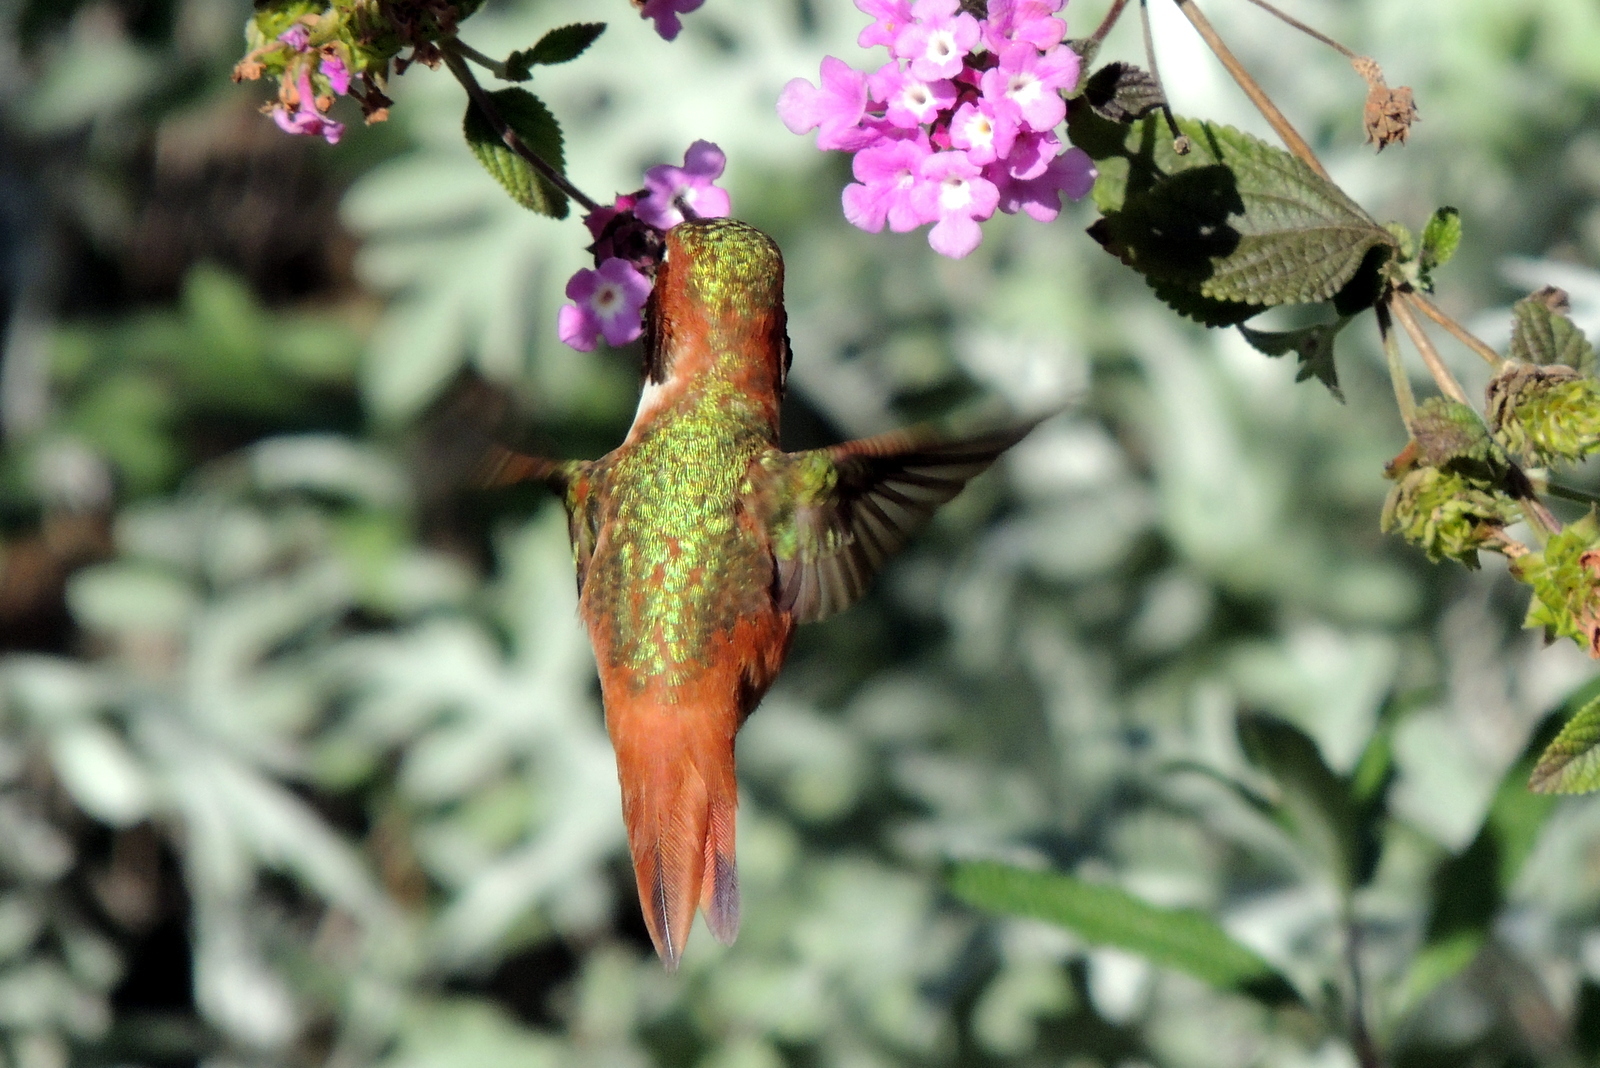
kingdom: Animalia
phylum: Chordata
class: Aves
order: Apodiformes
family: Trochilidae
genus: Selasphorus
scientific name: Selasphorus sasin
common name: Allen's hummingbird
